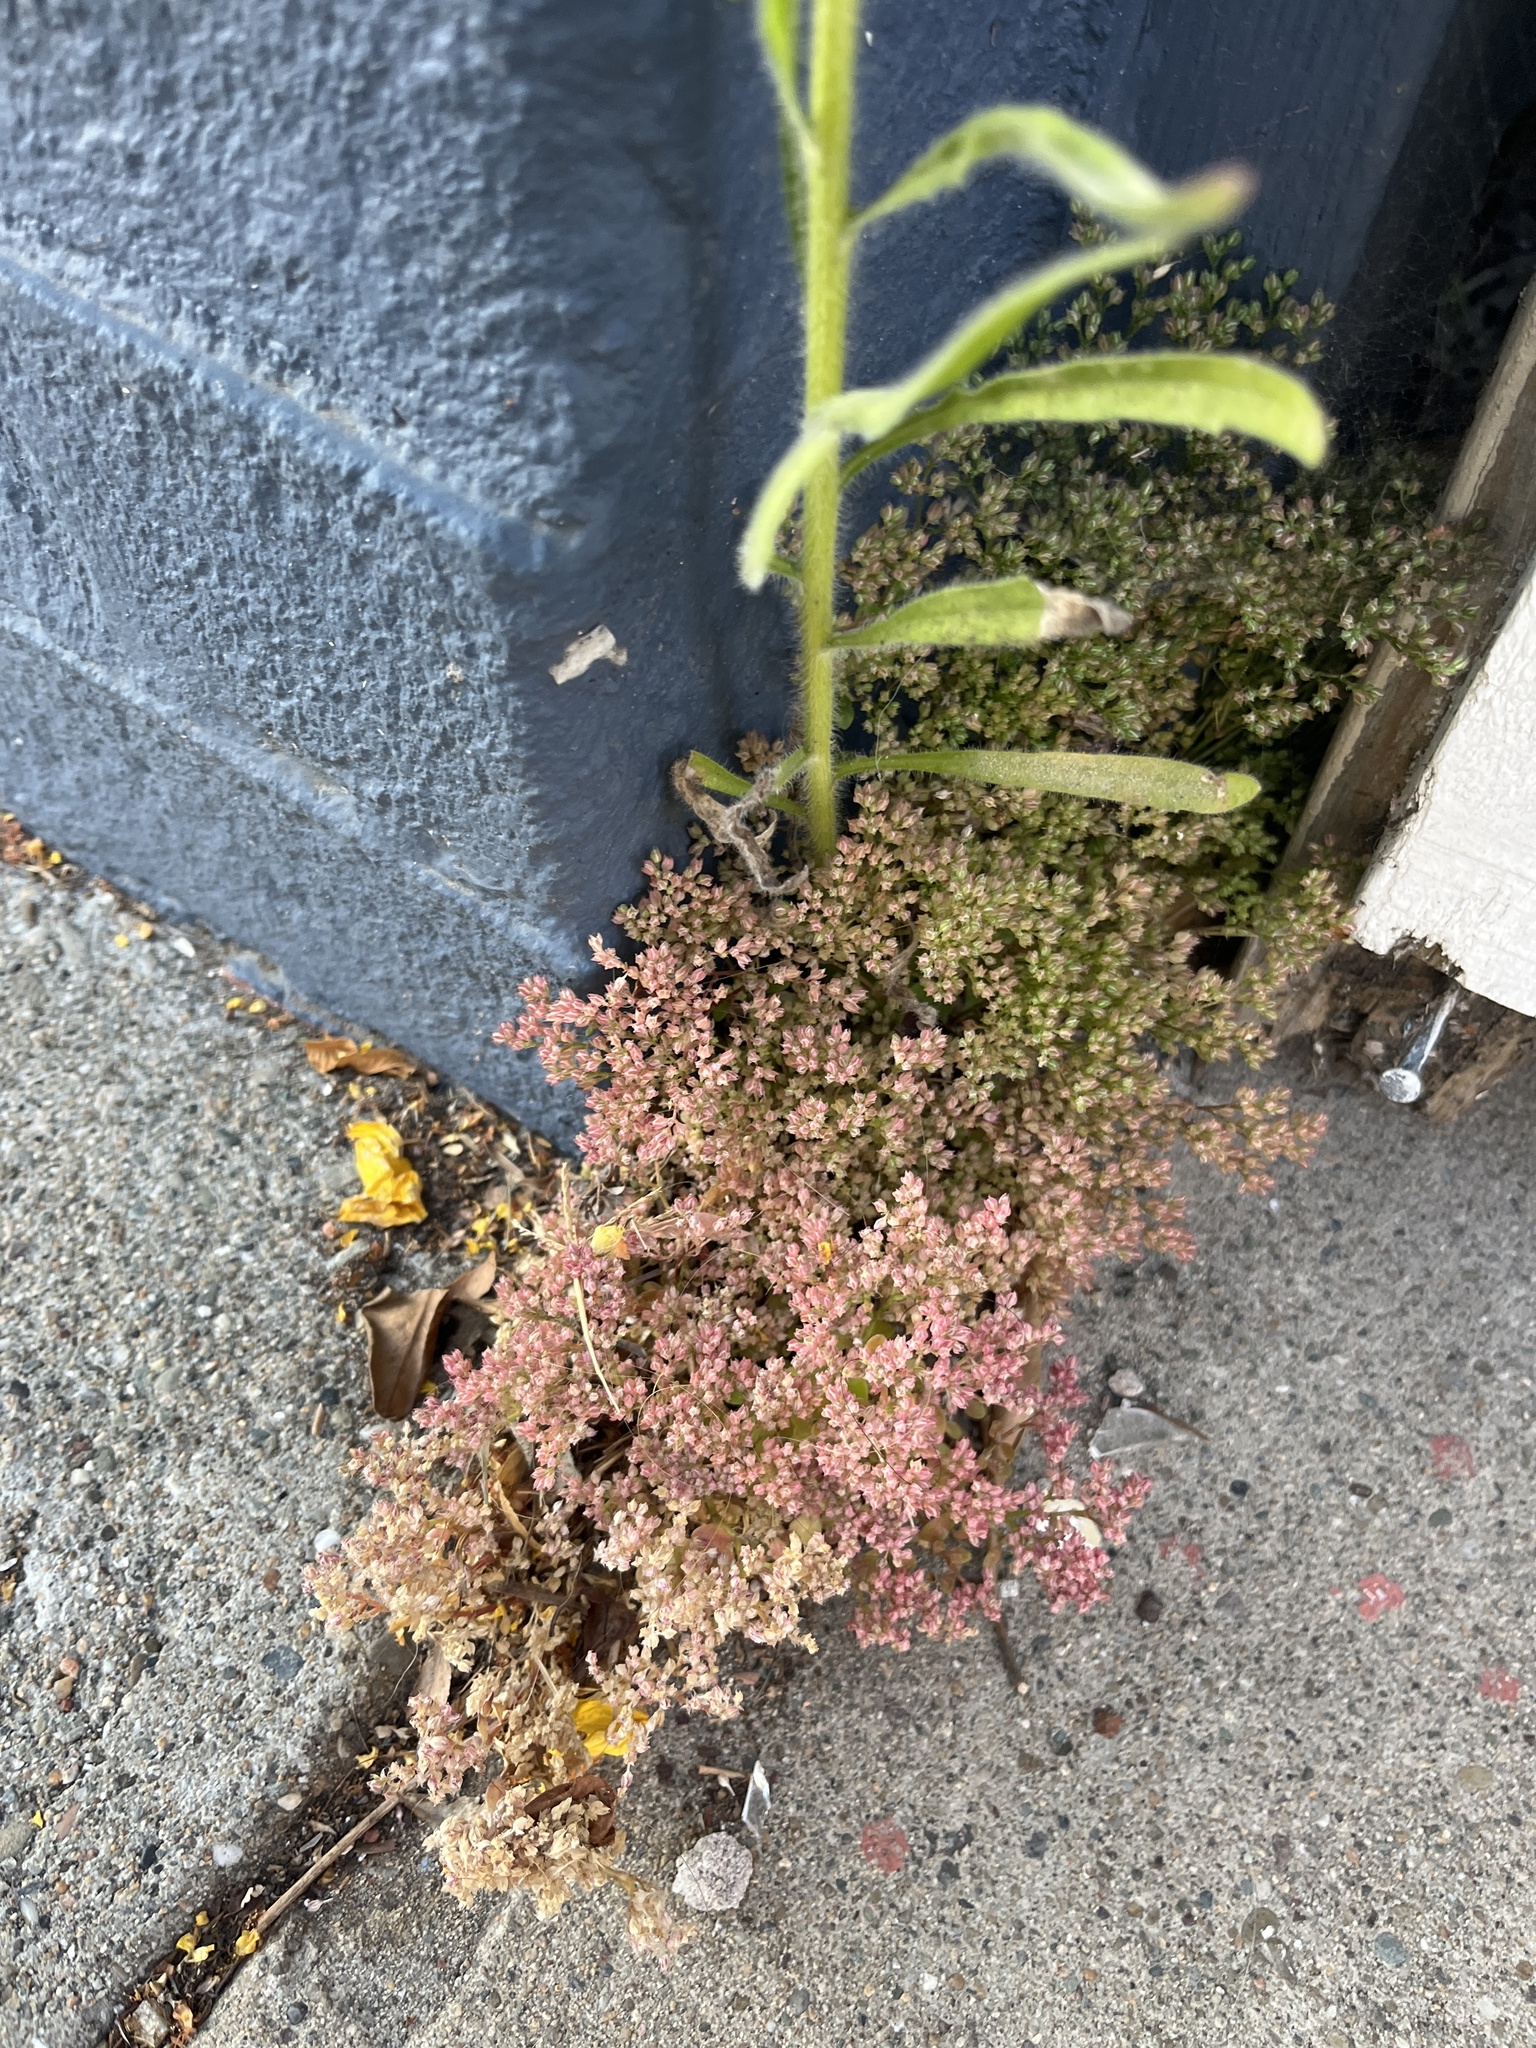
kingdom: Plantae
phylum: Tracheophyta
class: Magnoliopsida
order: Caryophyllales
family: Caryophyllaceae
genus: Polycarpon
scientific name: Polycarpon tetraphyllum
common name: Four-leaved all-seed
